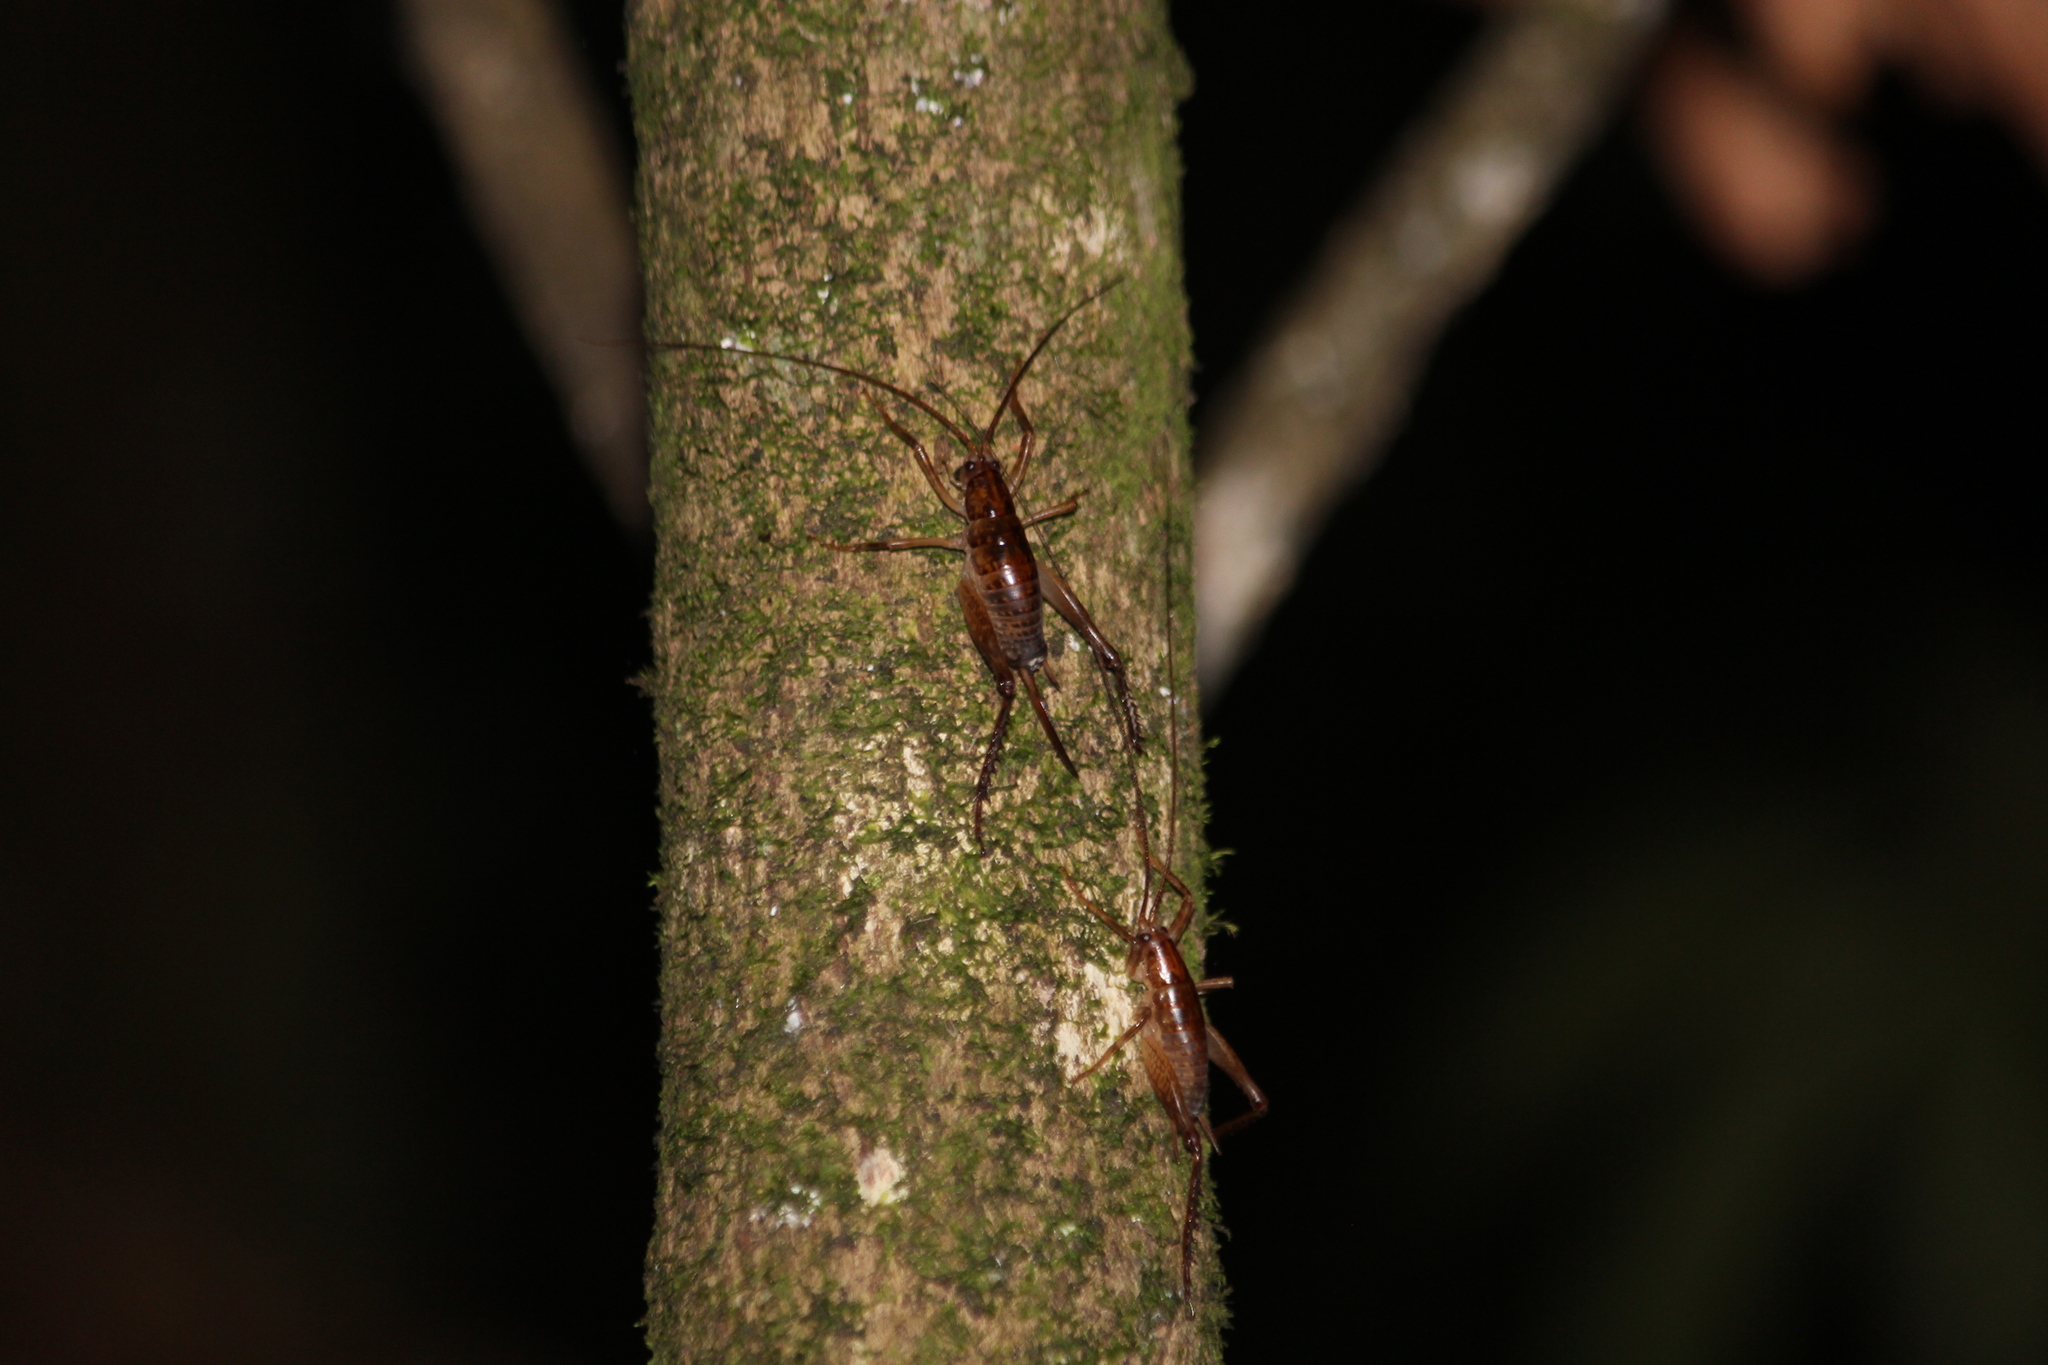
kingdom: Animalia
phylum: Arthropoda
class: Insecta
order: Orthoptera
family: Rhaphidophoridae
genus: Talitropsis
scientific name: Talitropsis sedilloti
